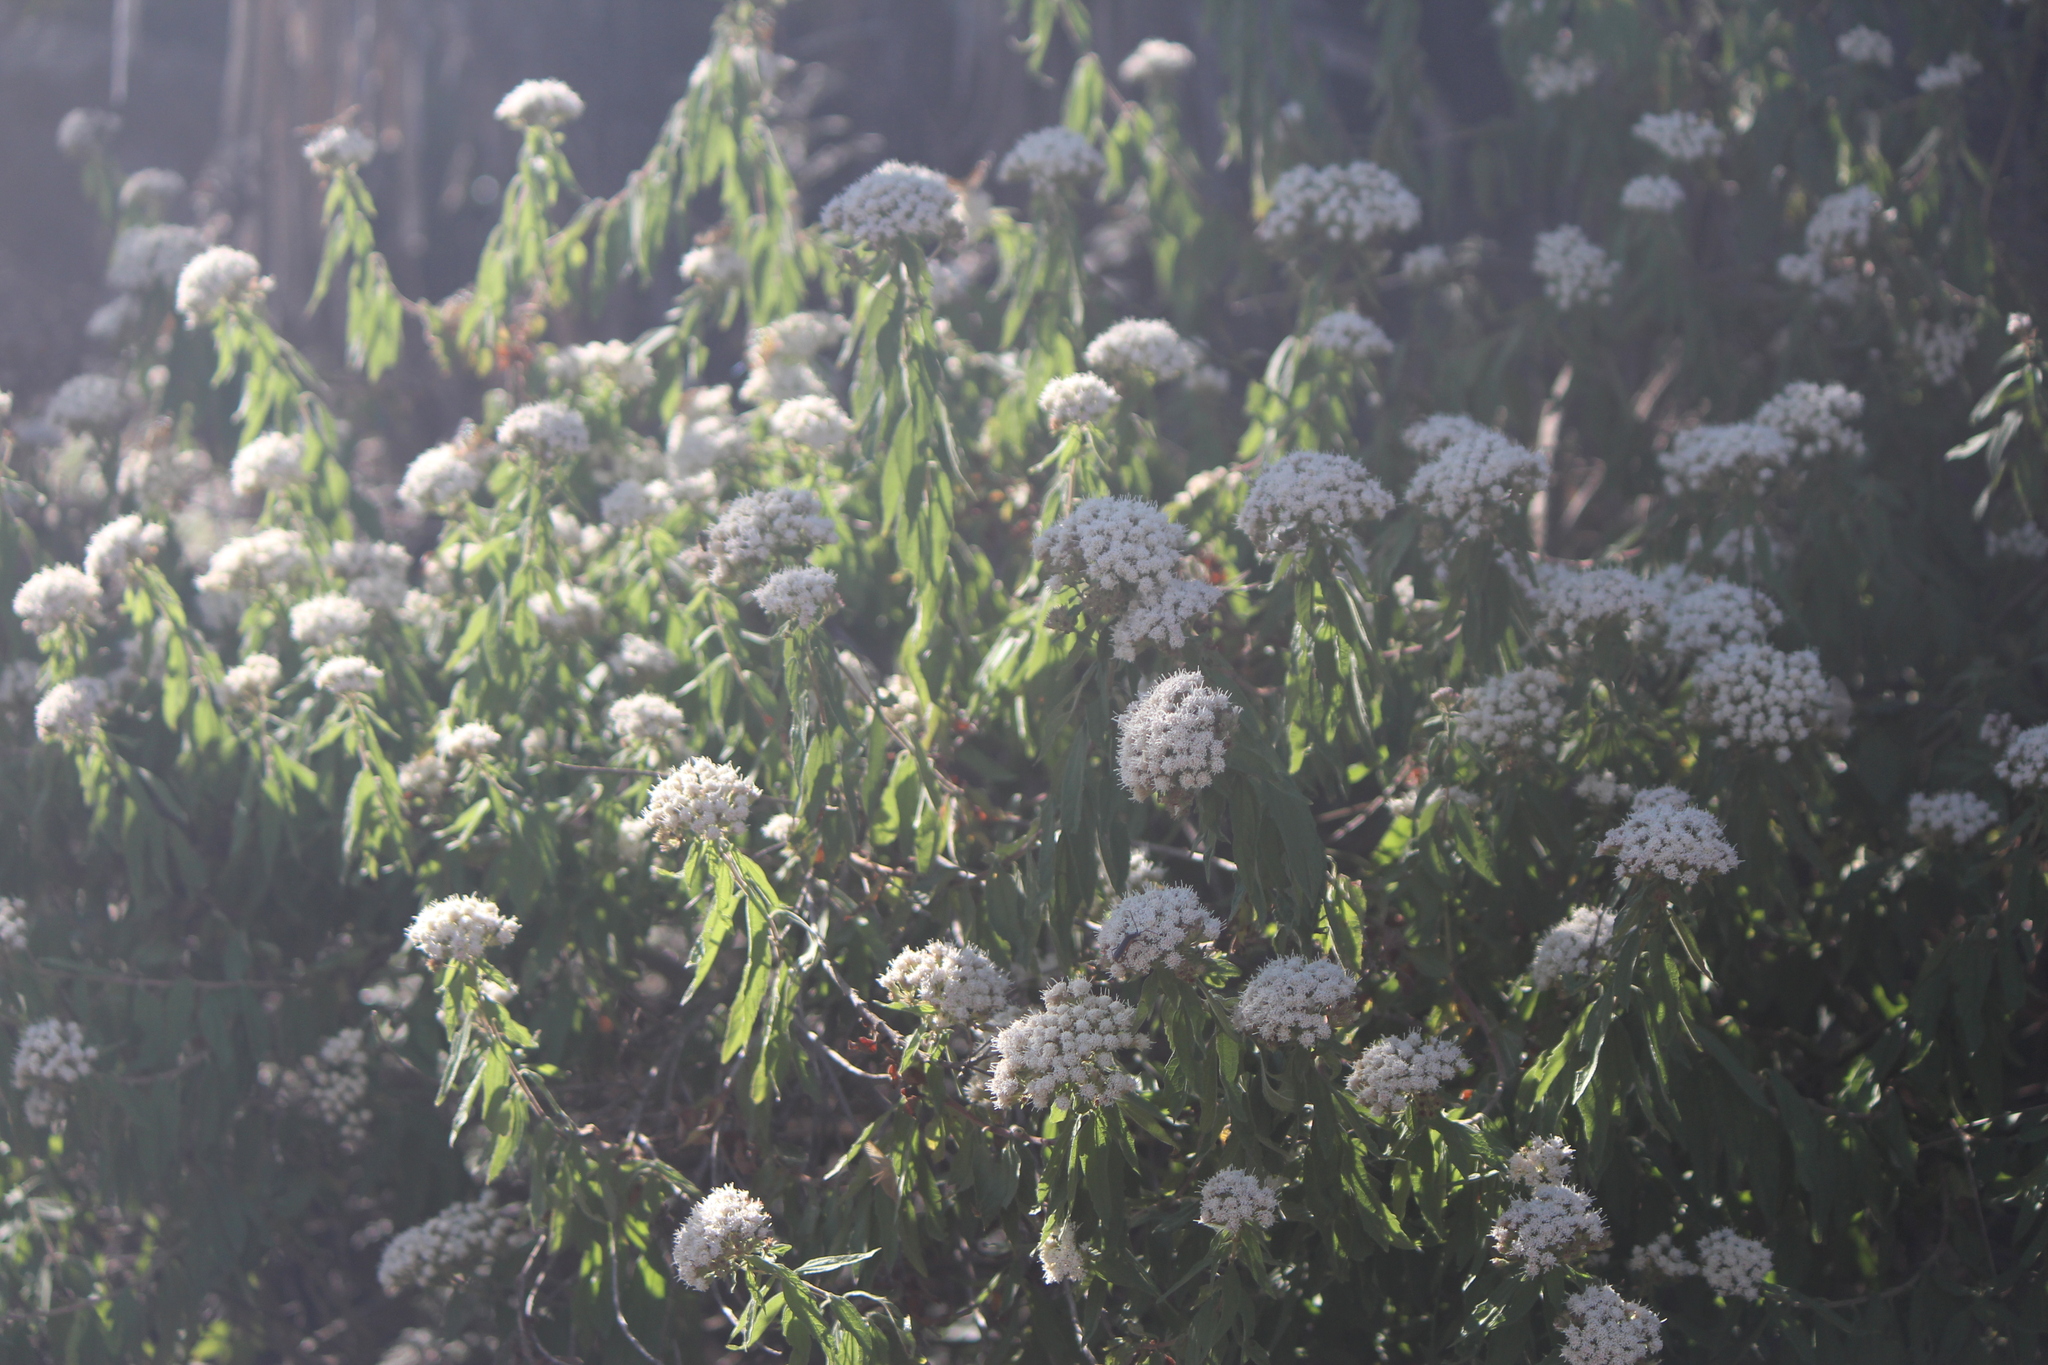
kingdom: Plantae
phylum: Tracheophyta
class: Magnoliopsida
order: Asterales
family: Asteraceae
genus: Ageratina
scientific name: Ageratina brevipes
